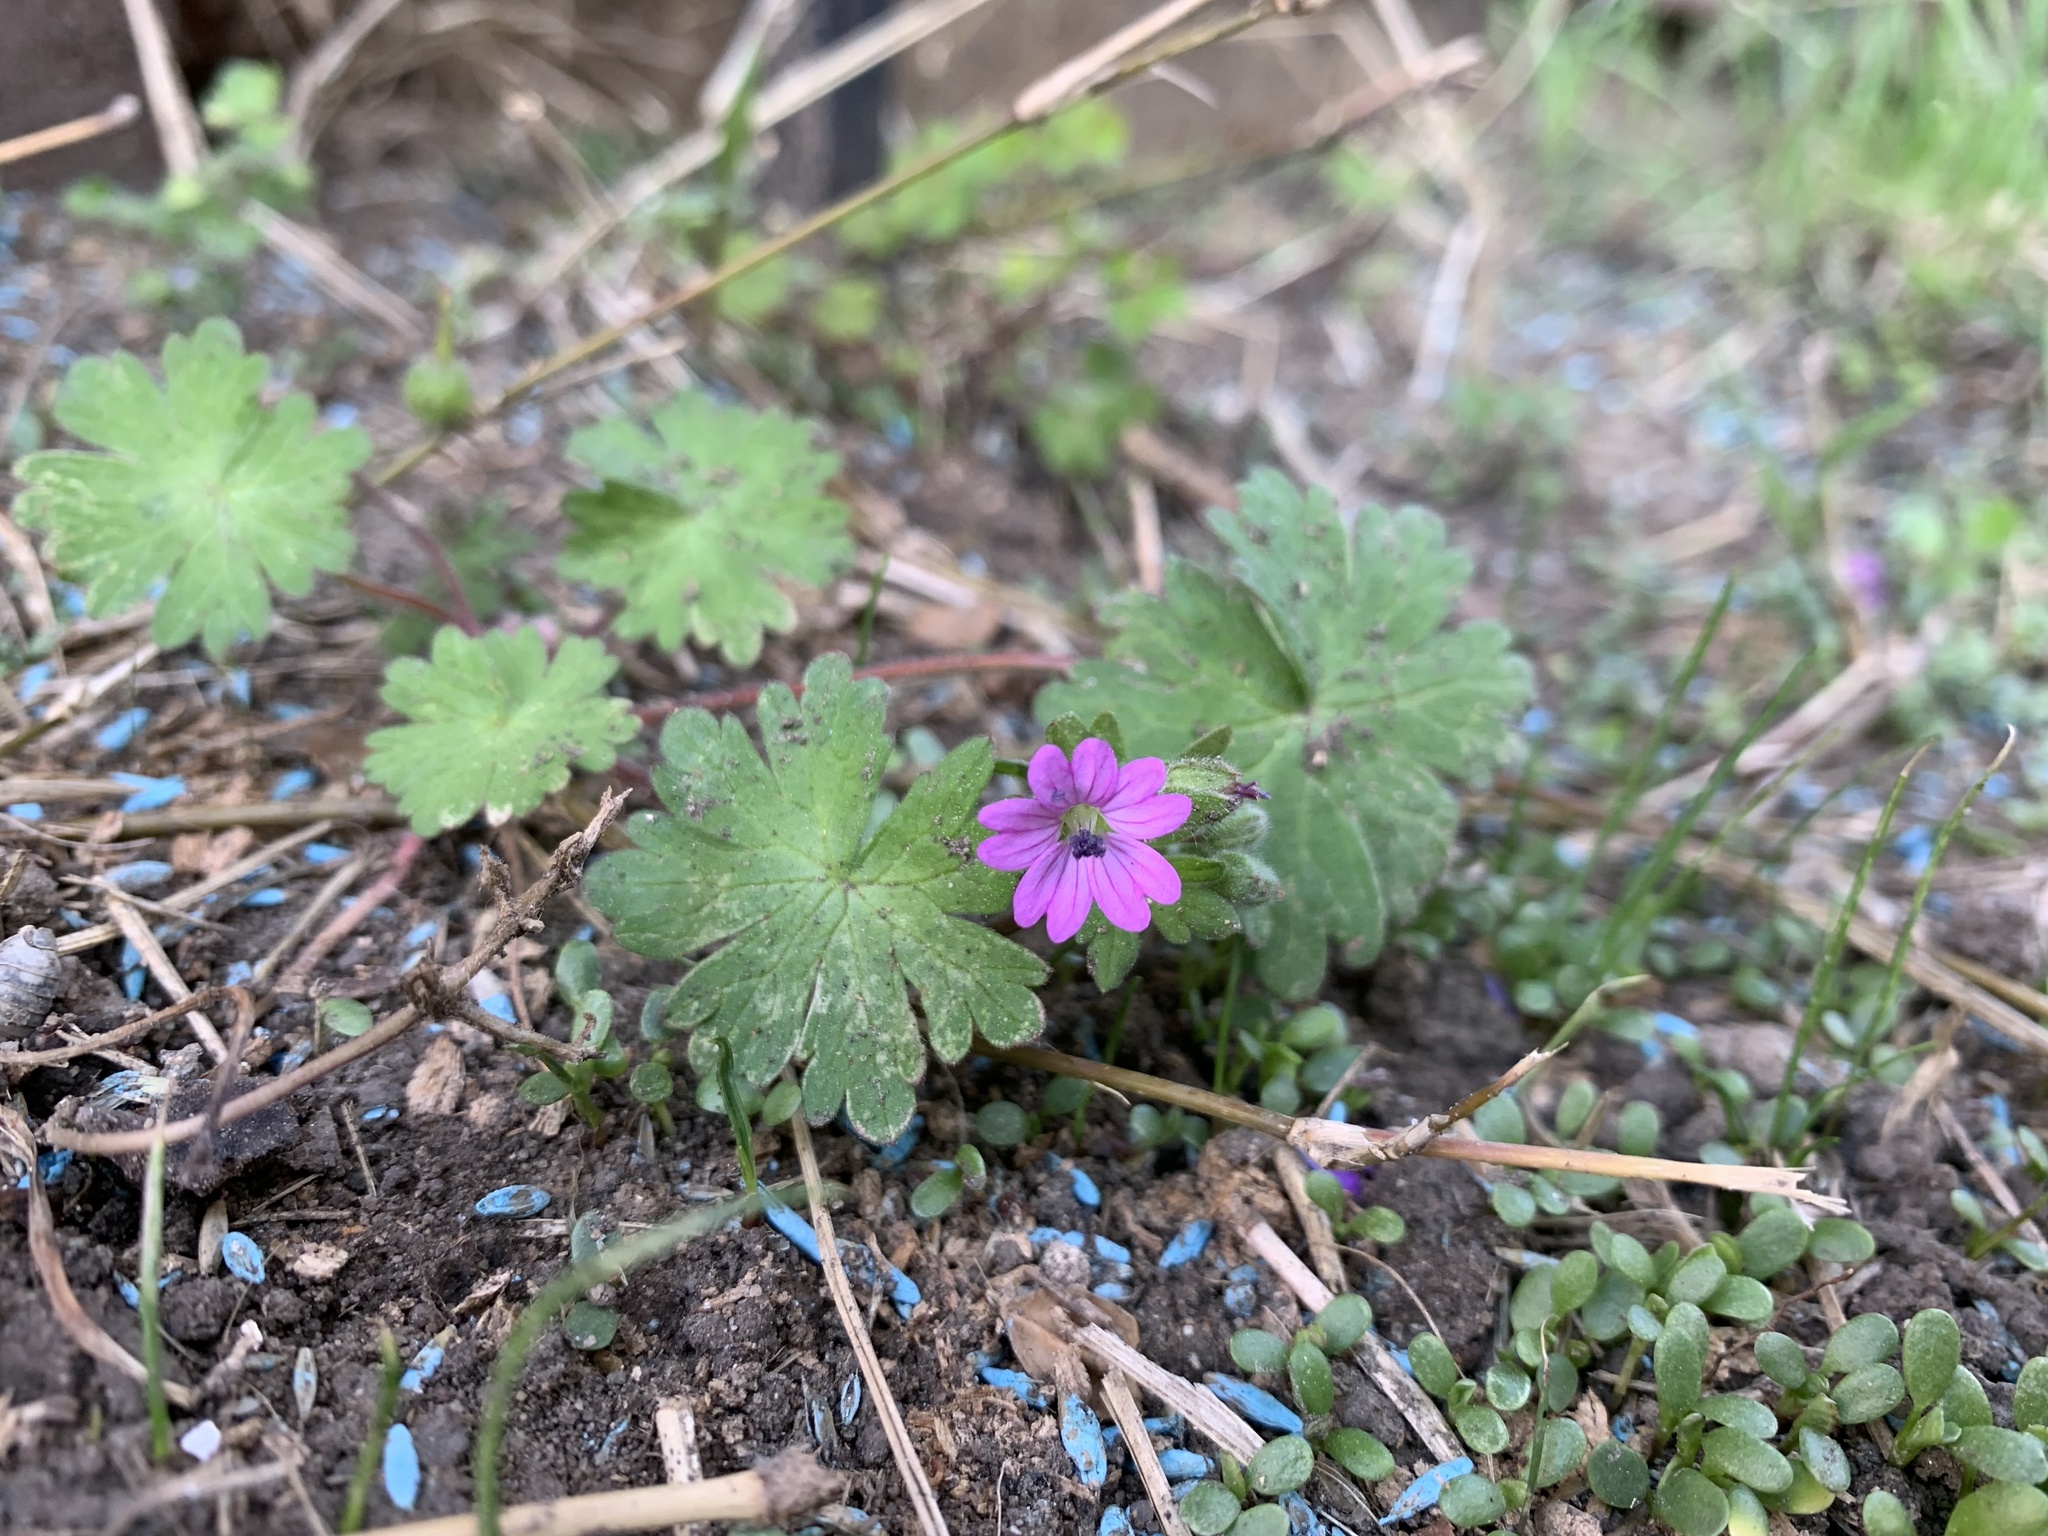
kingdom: Plantae
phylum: Tracheophyta
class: Magnoliopsida
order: Geraniales
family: Geraniaceae
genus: Geranium
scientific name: Geranium molle
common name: Dove's-foot crane's-bill
